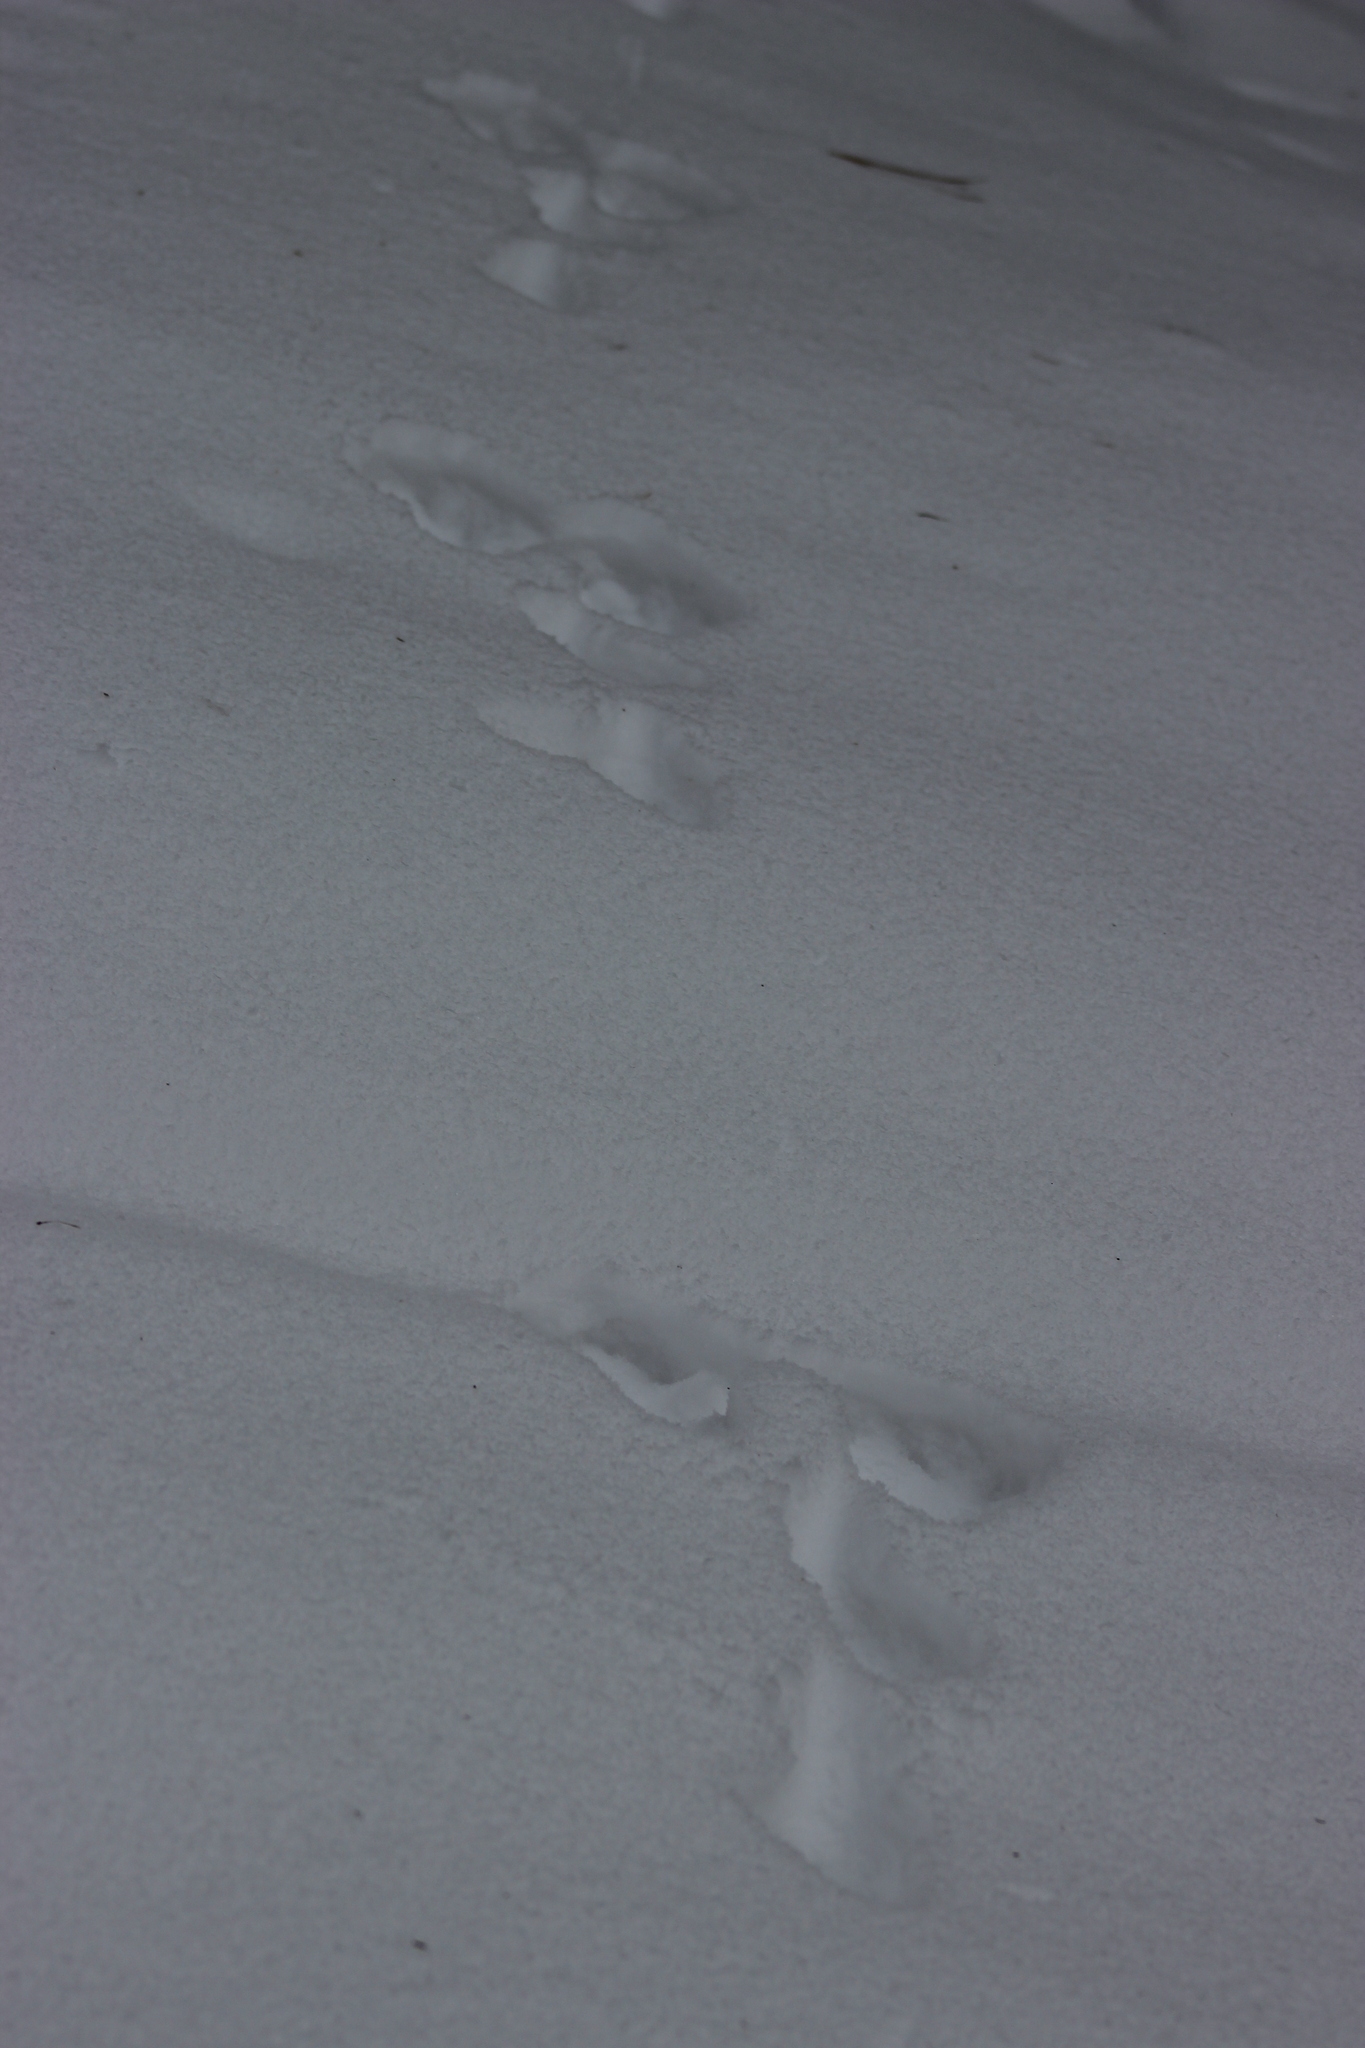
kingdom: Animalia
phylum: Chordata
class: Mammalia
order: Lagomorpha
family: Leporidae
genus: Lepus
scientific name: Lepus timidus
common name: Mountain hare
